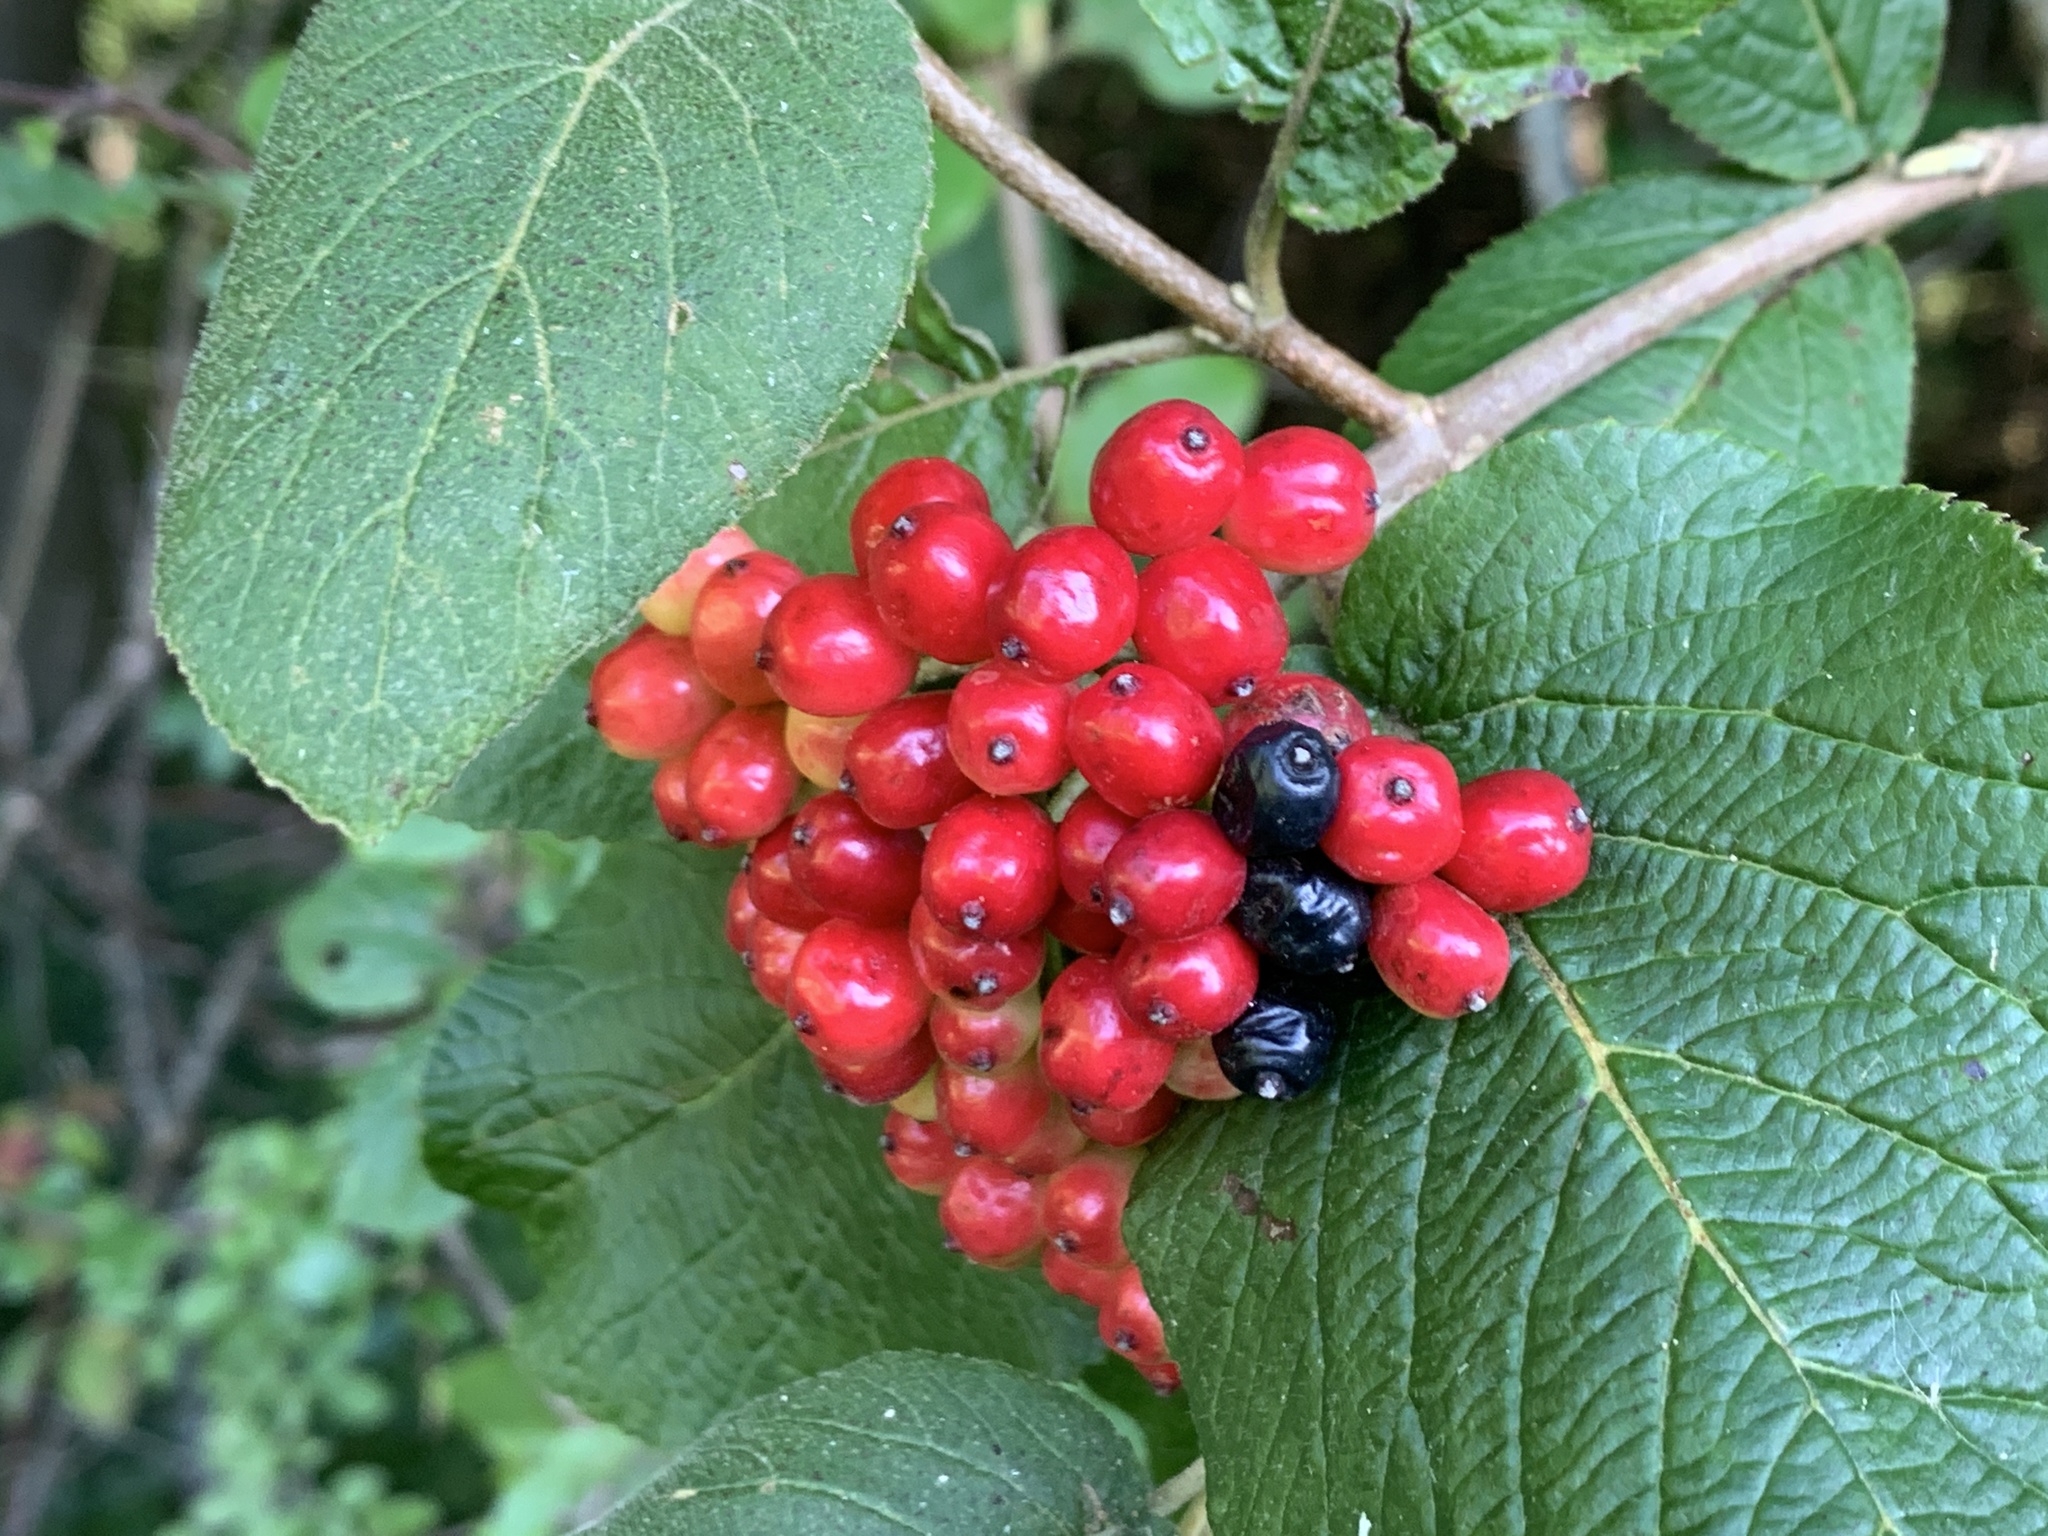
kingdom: Plantae
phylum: Tracheophyta
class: Magnoliopsida
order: Dipsacales
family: Viburnaceae
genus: Viburnum
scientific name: Viburnum lantana
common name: Wayfaring tree
